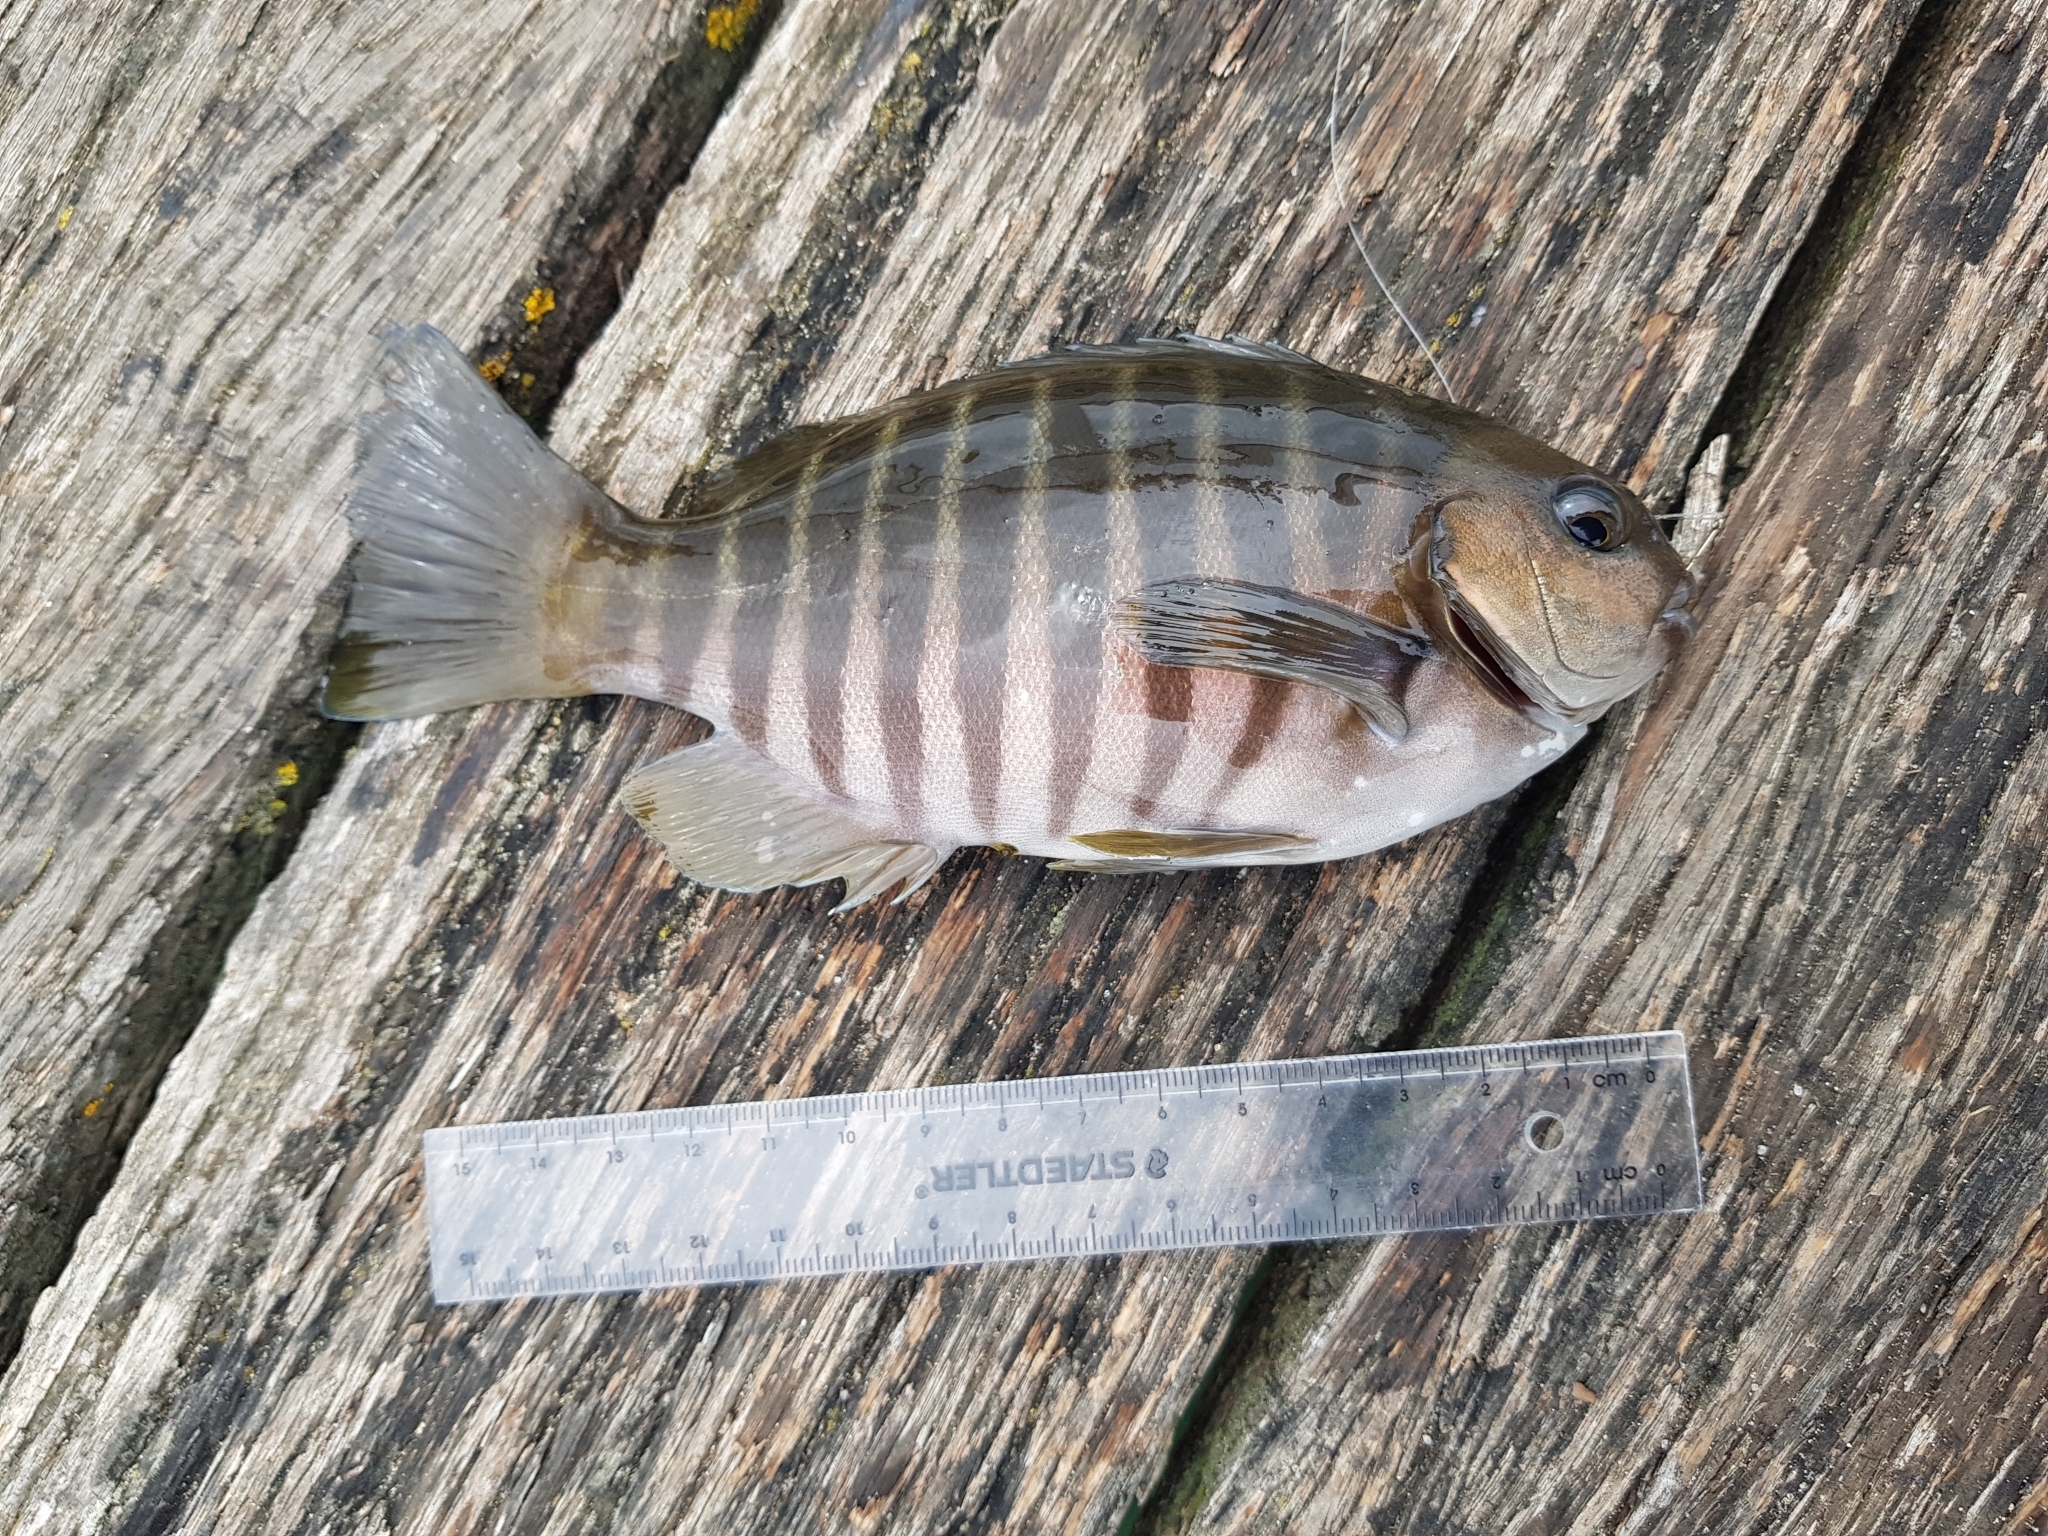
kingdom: Animalia
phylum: Chordata
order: Perciformes
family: Kyphosidae
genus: Girella
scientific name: Girella zebra
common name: Stripey bream
